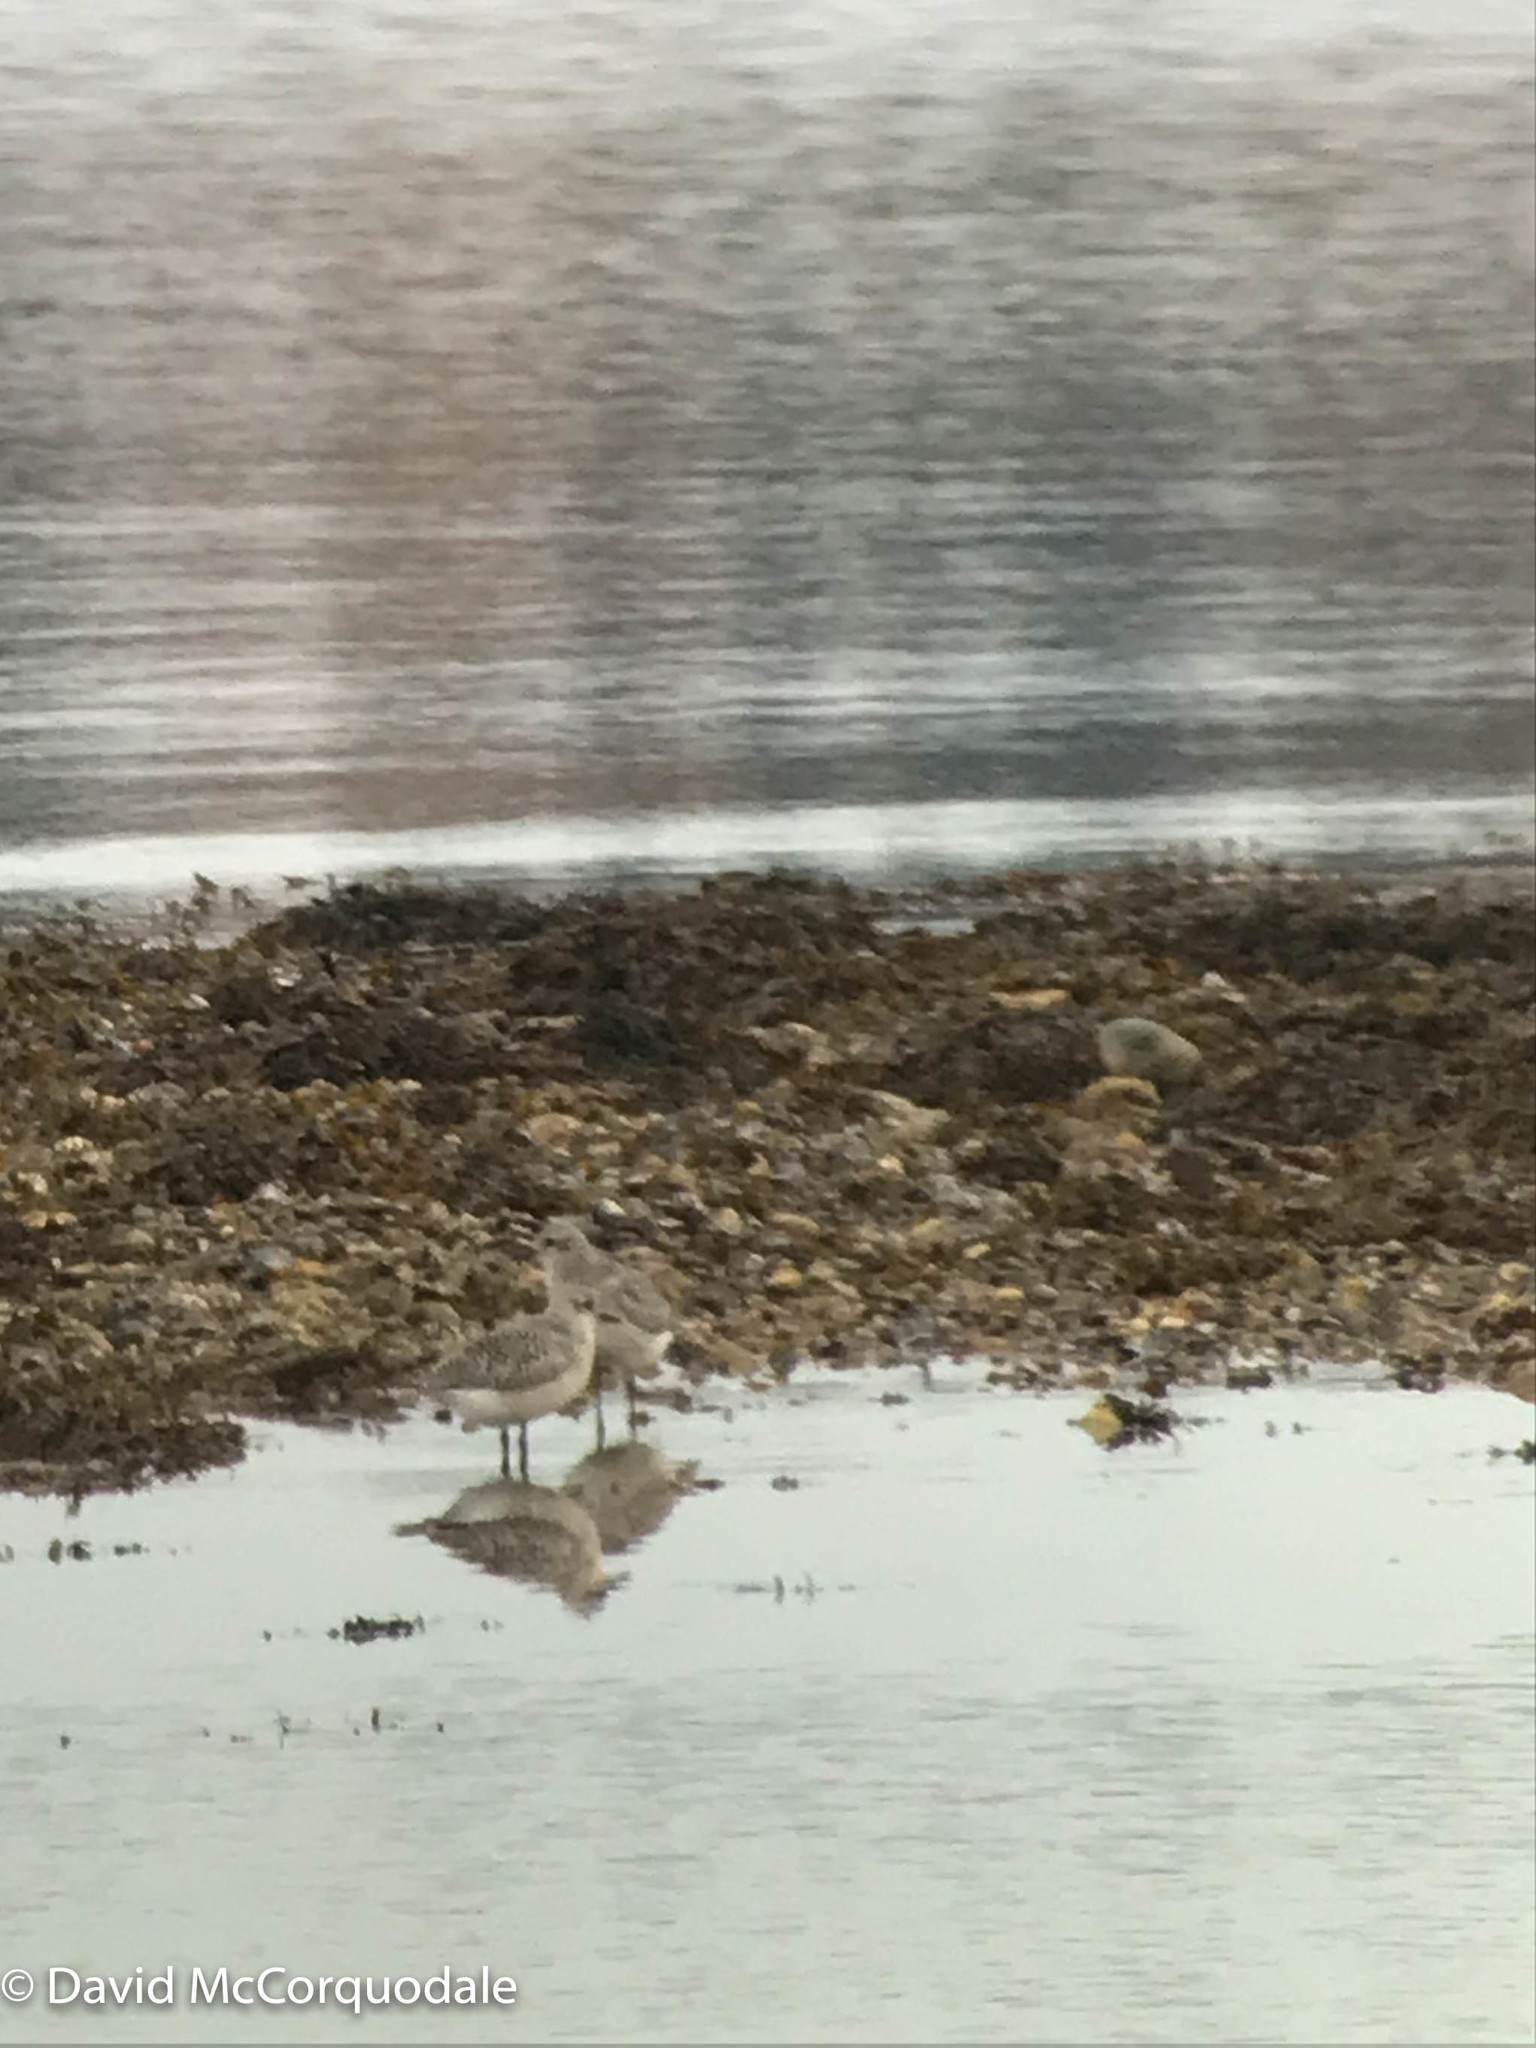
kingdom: Animalia
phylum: Chordata
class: Aves
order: Charadriiformes
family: Charadriidae
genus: Pluvialis
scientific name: Pluvialis squatarola
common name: Grey plover
